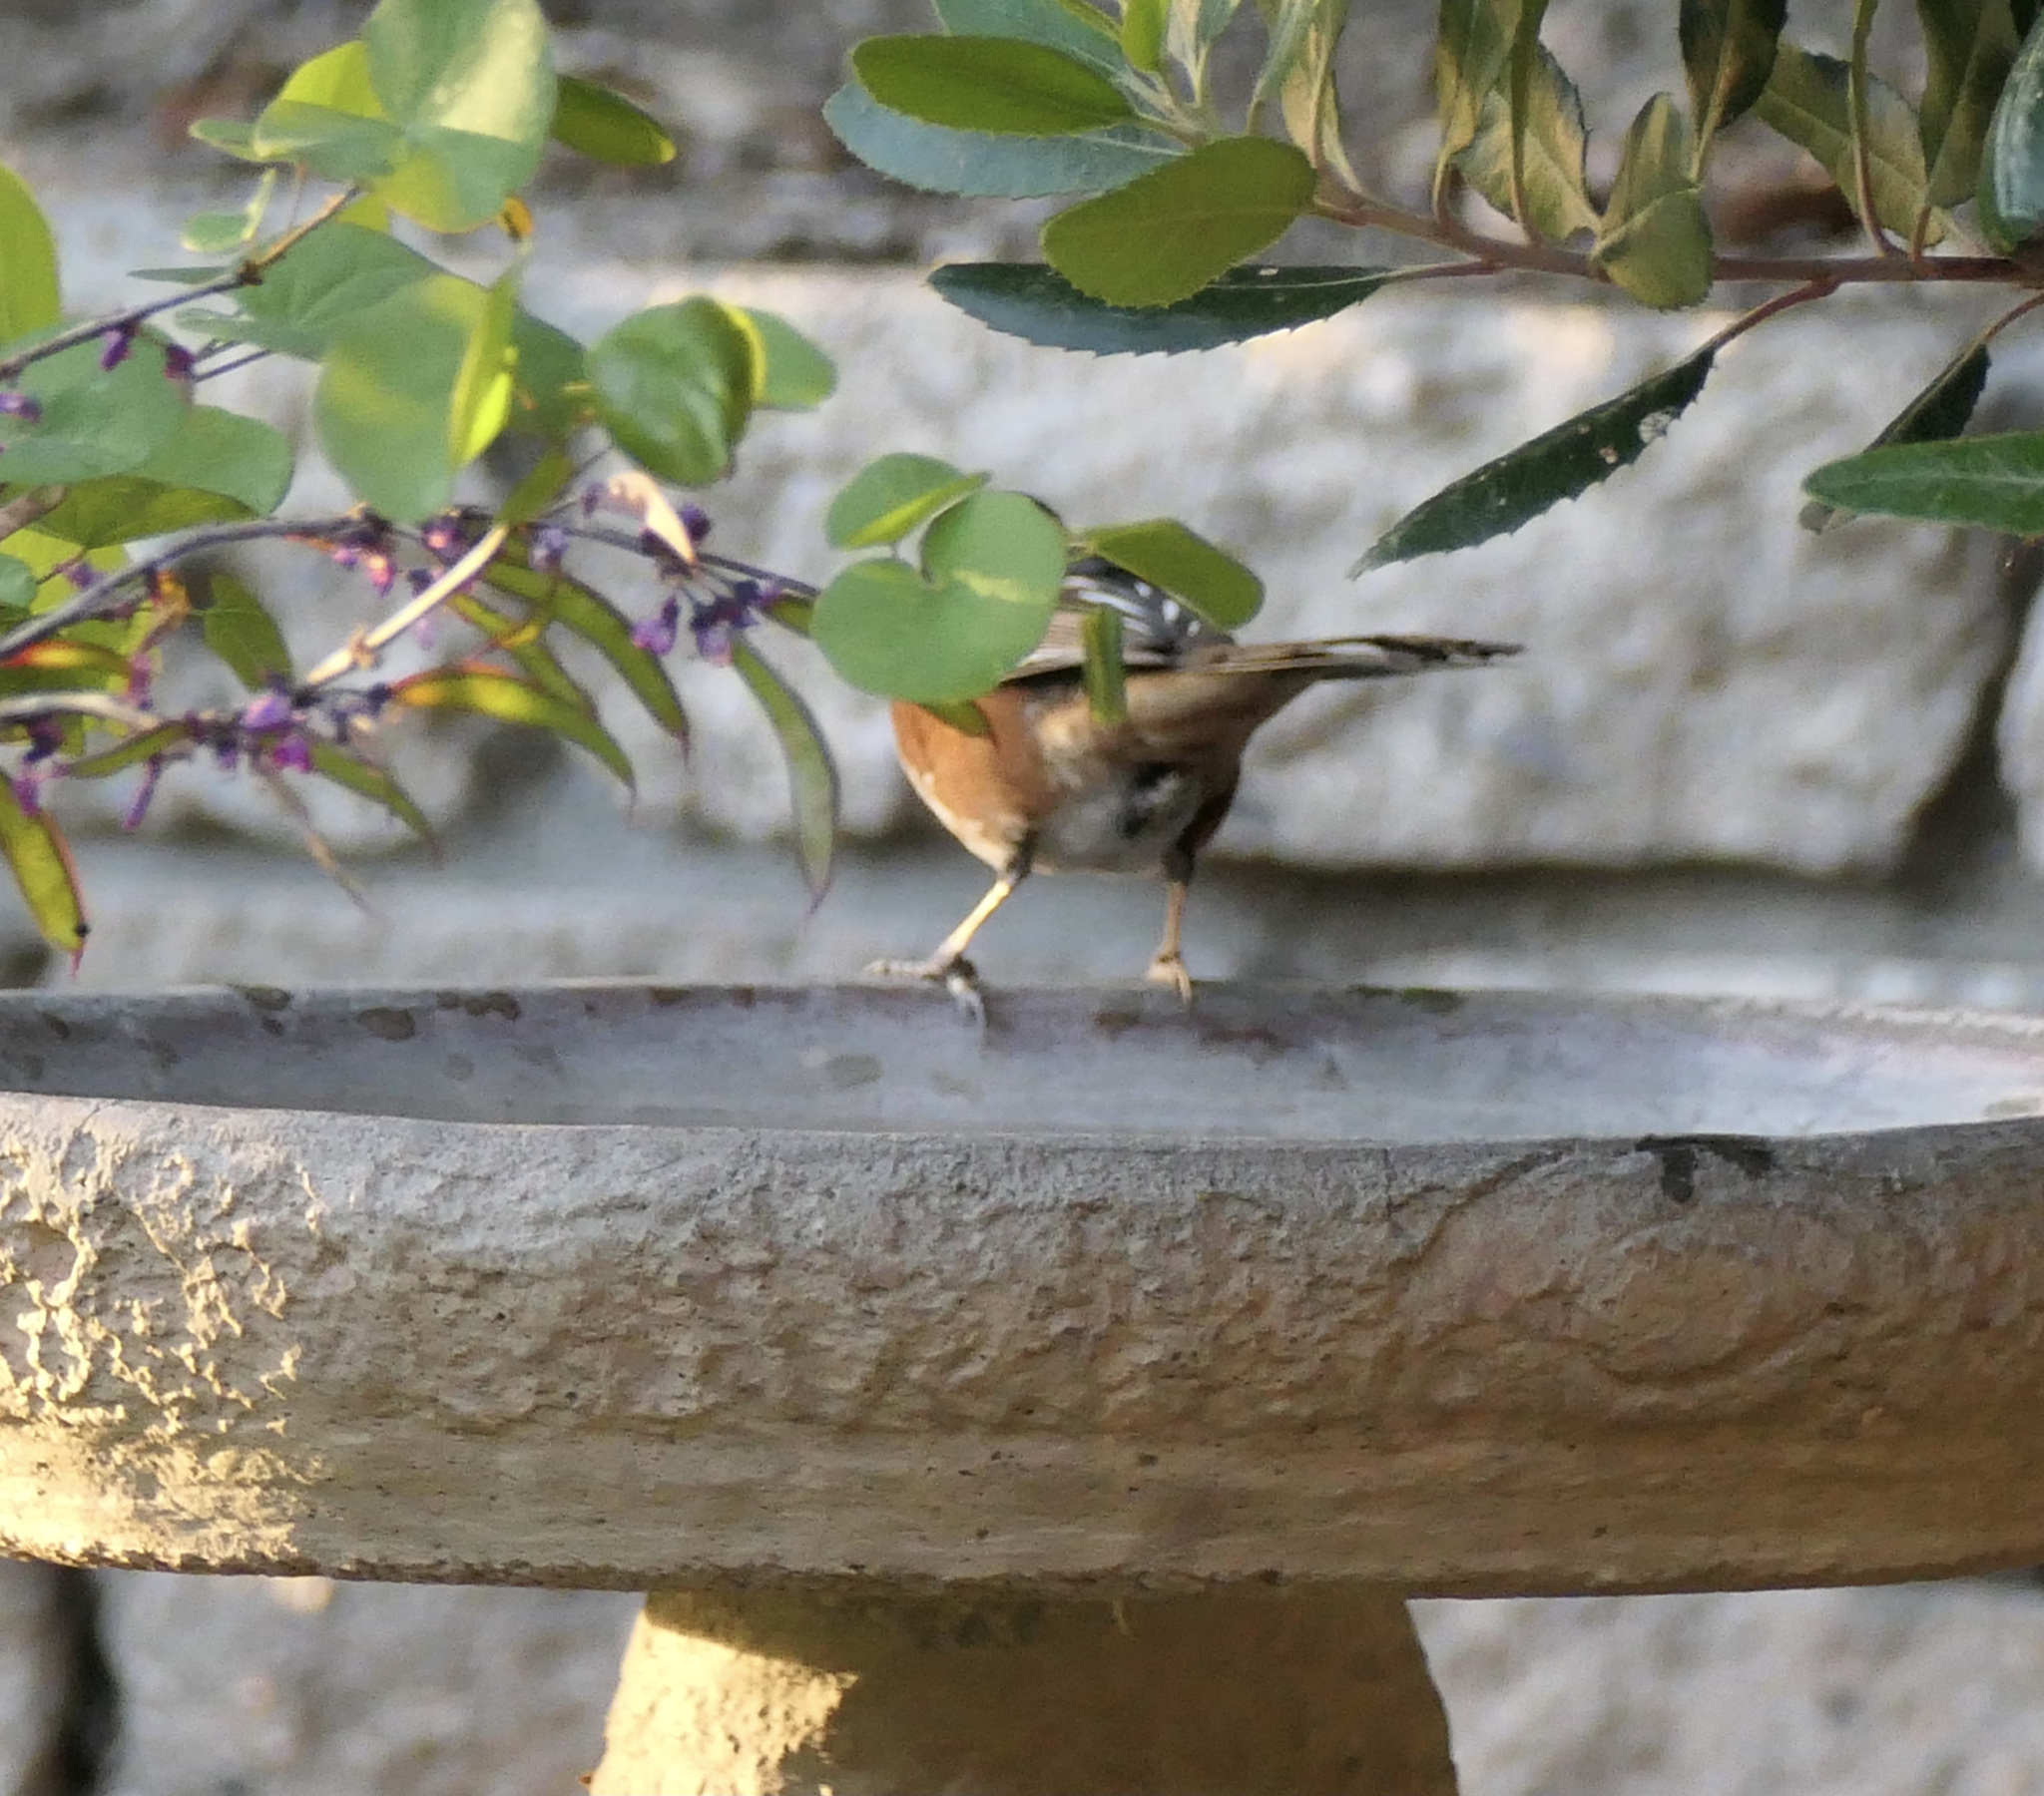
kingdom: Animalia
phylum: Chordata
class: Aves
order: Passeriformes
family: Passerellidae
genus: Pipilo
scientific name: Pipilo maculatus
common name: Spotted towhee
